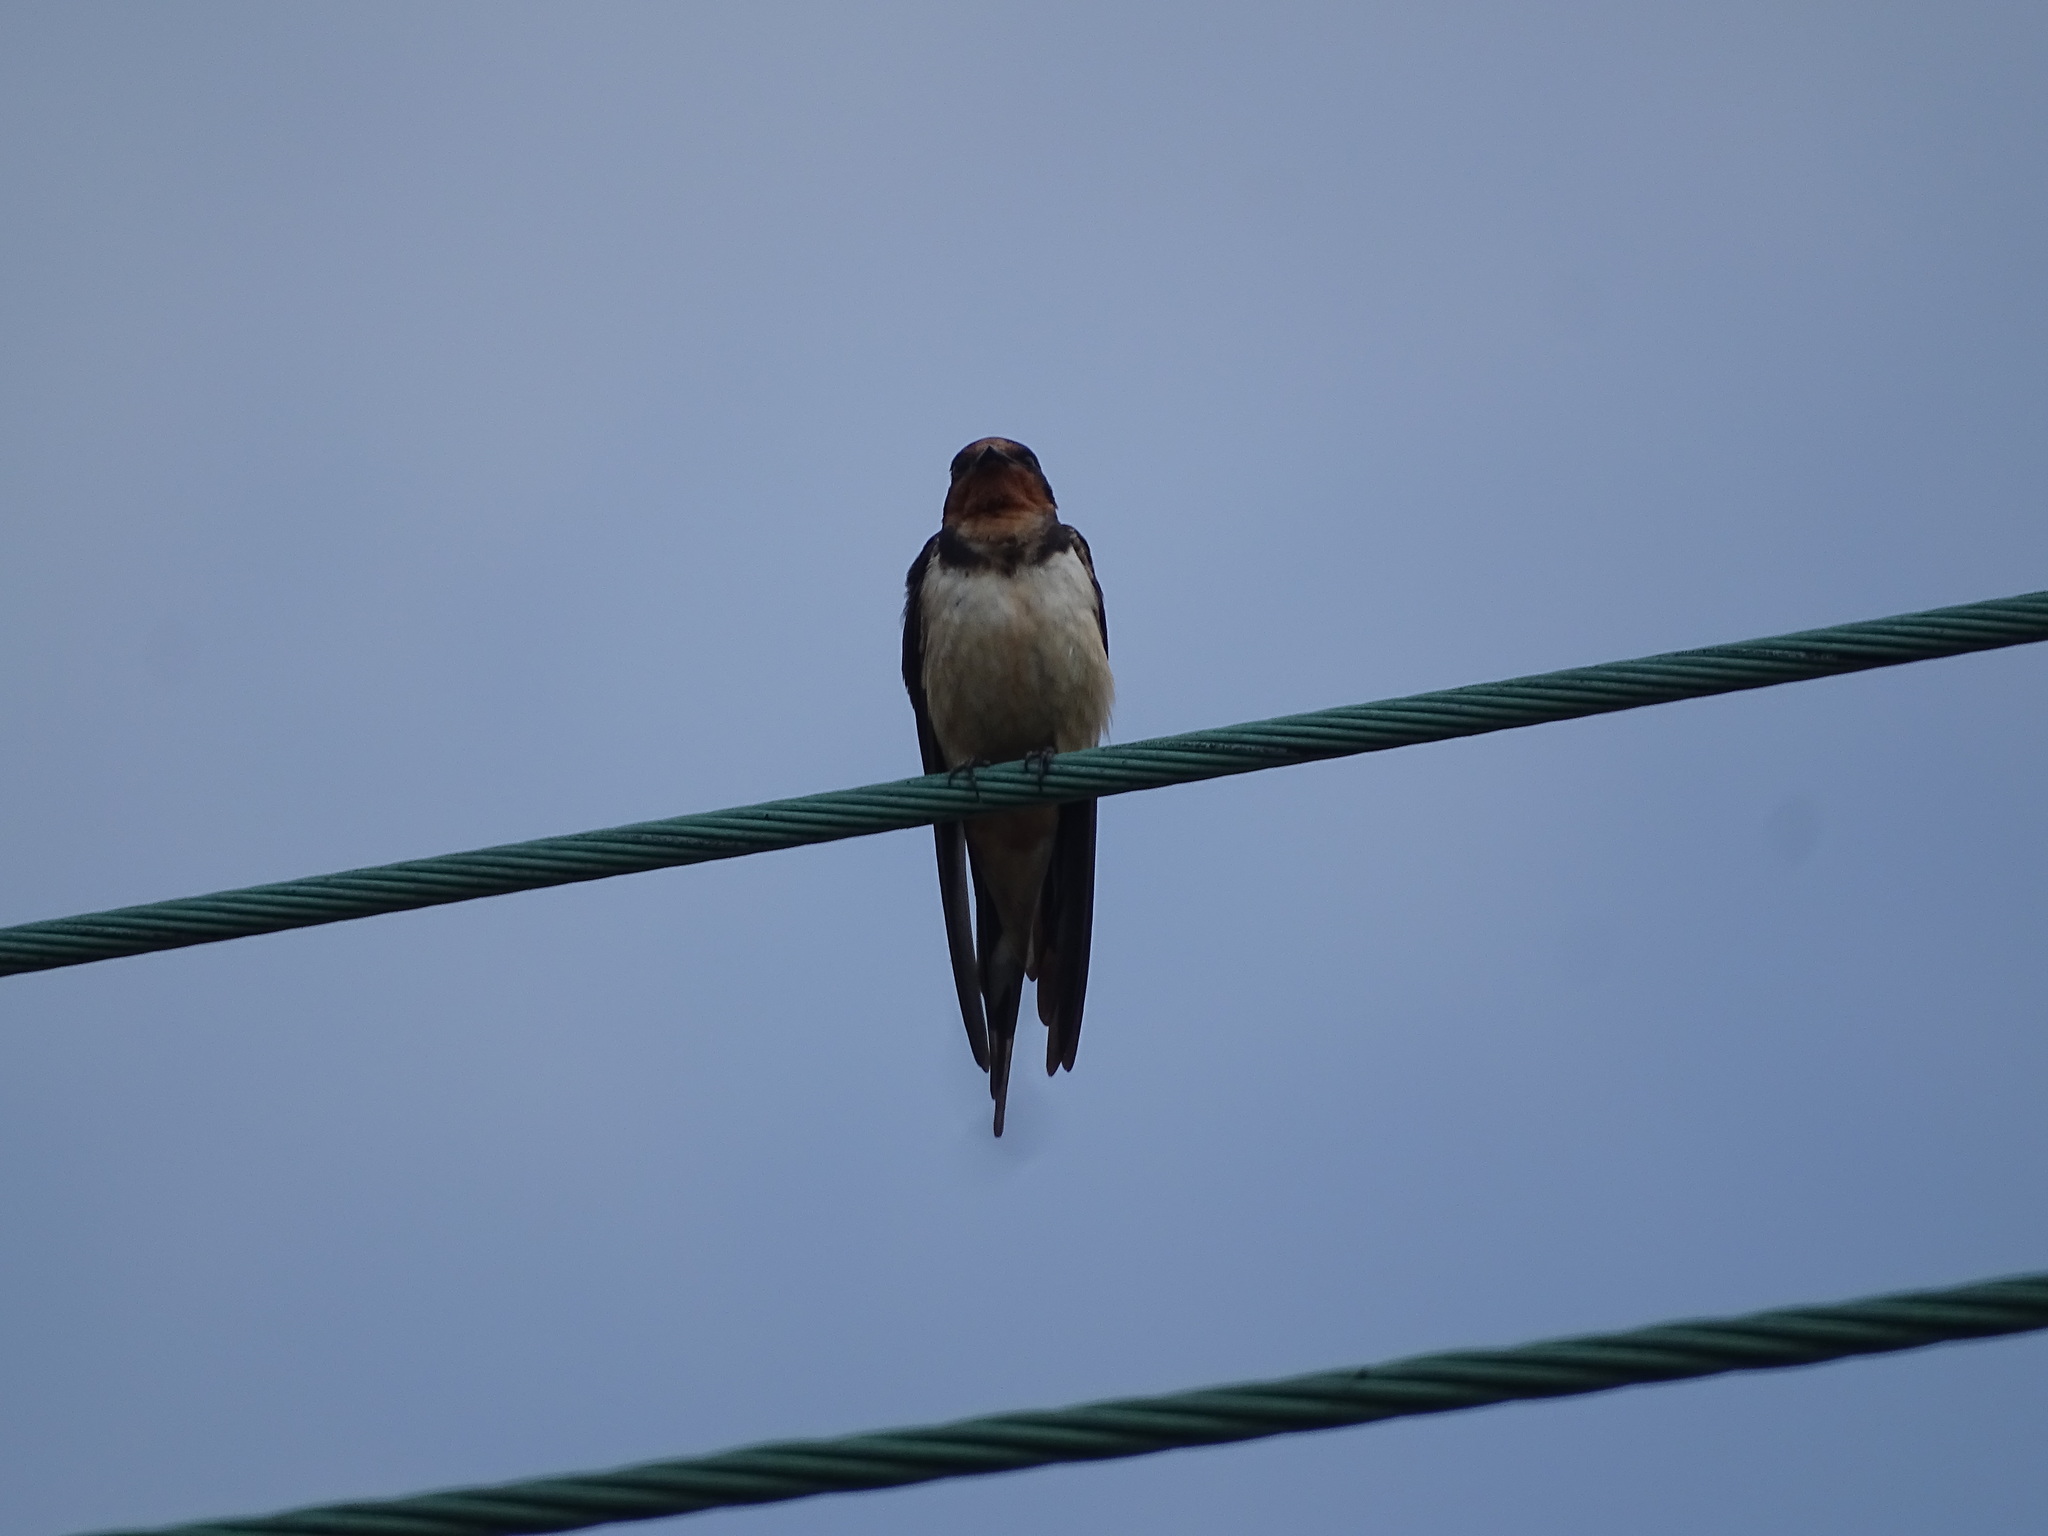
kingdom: Animalia
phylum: Chordata
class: Aves
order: Passeriformes
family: Hirundinidae
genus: Hirundo
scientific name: Hirundo rustica
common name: Barn swallow
